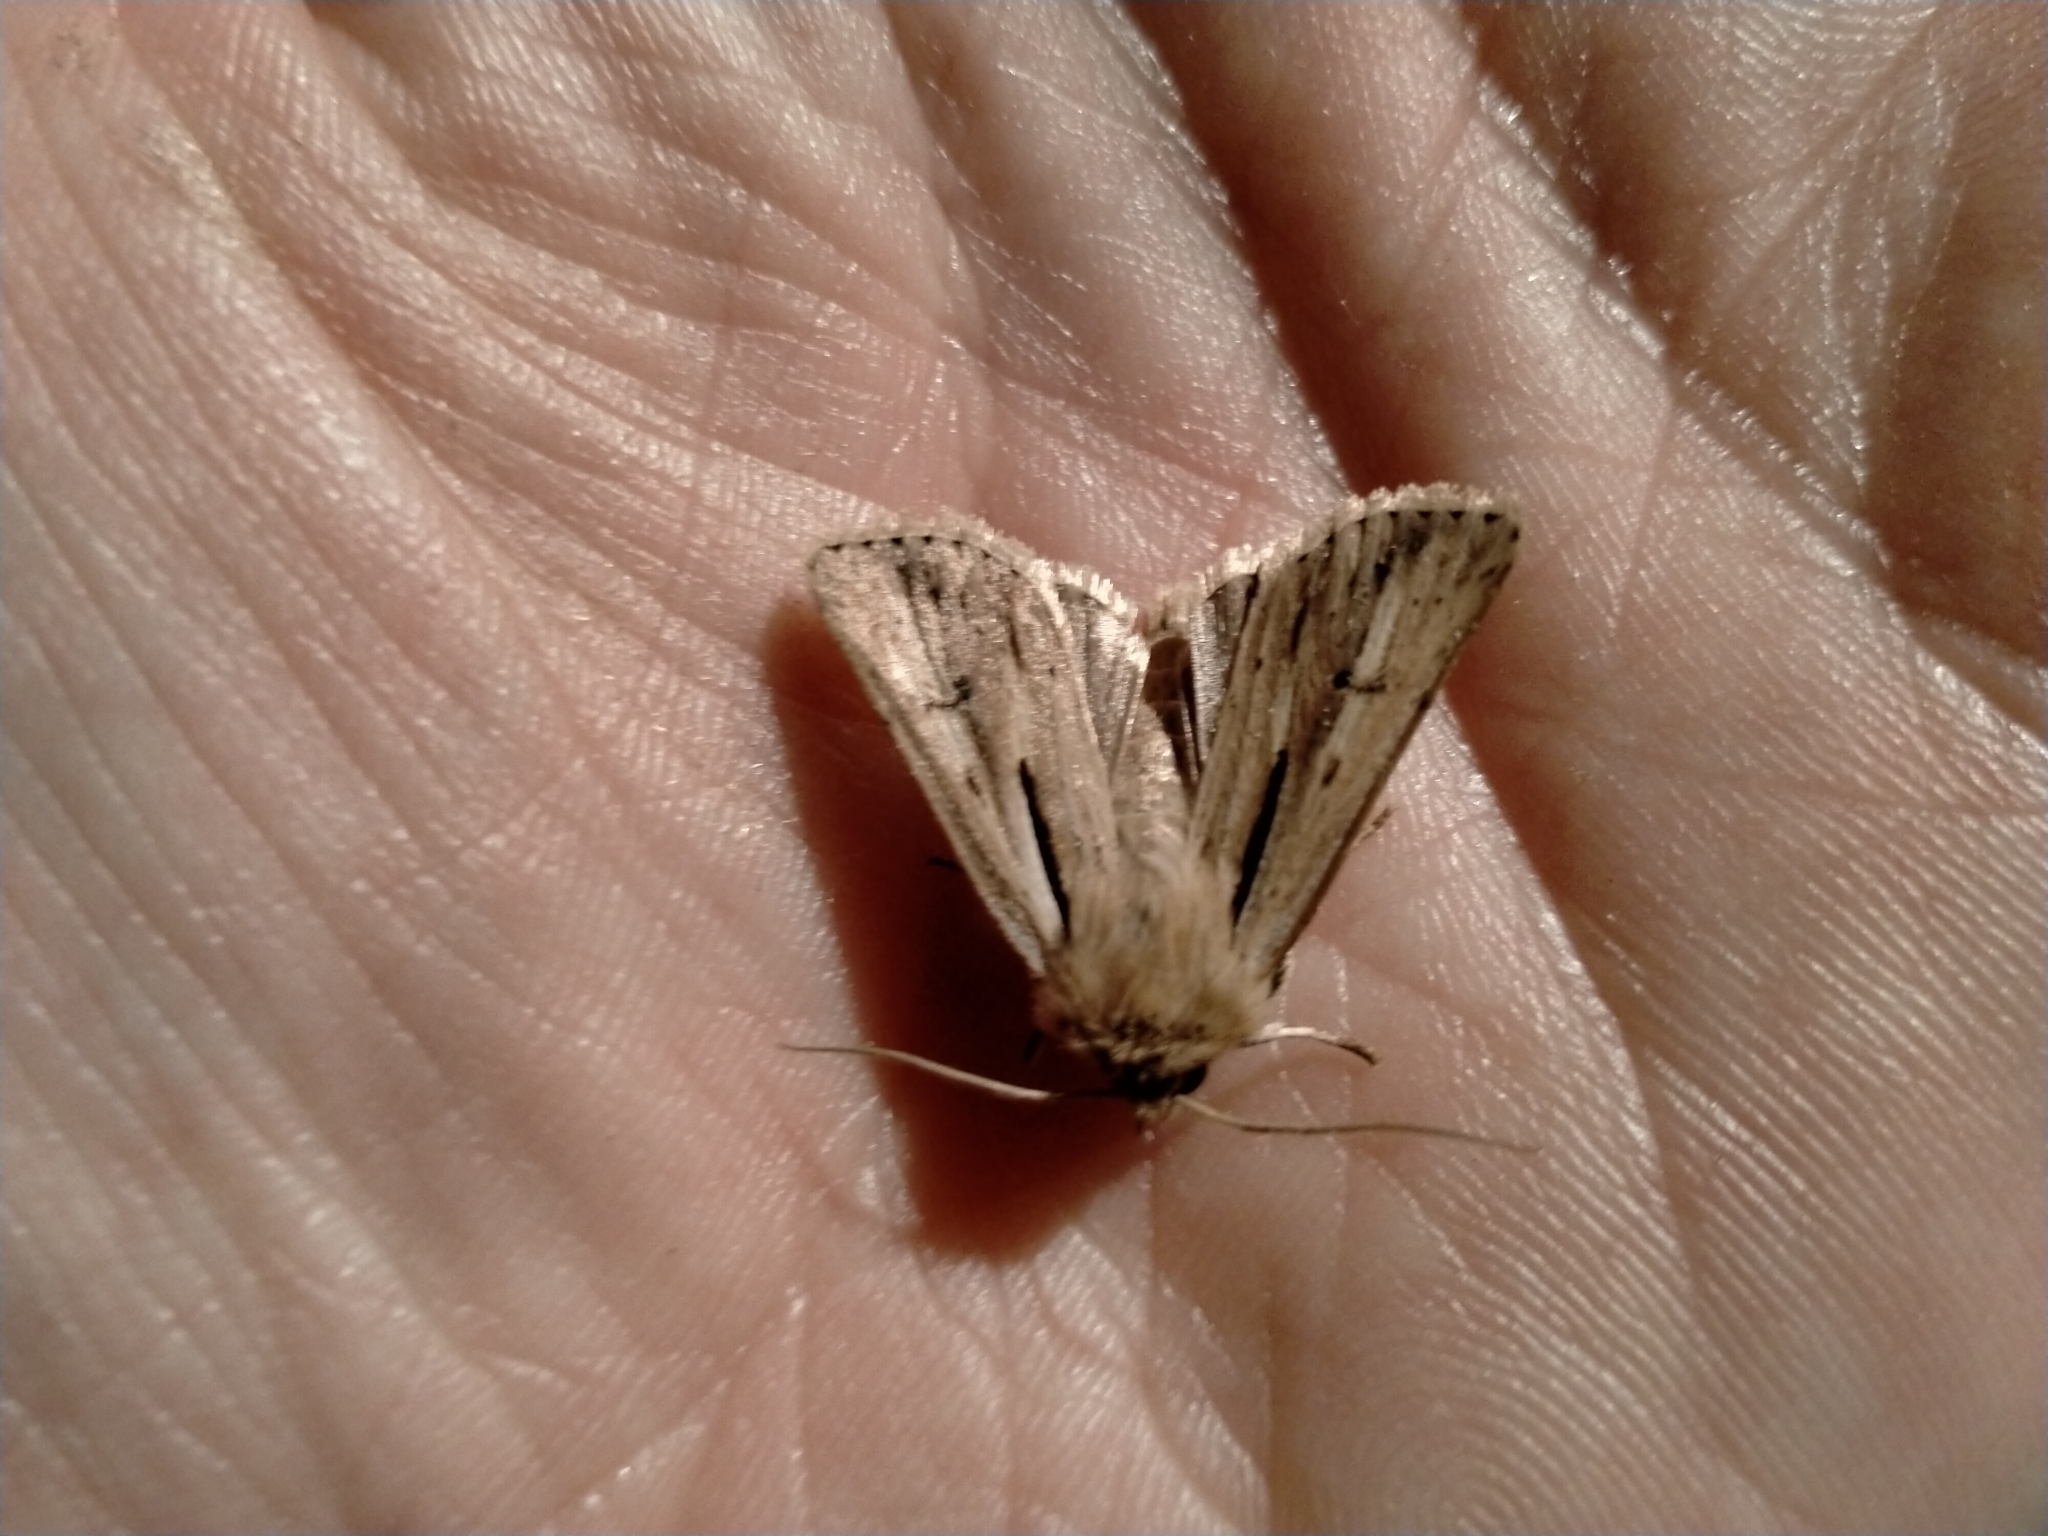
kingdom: Animalia
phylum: Arthropoda
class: Insecta
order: Lepidoptera
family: Noctuidae
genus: Ichneutica
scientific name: Ichneutica propria
